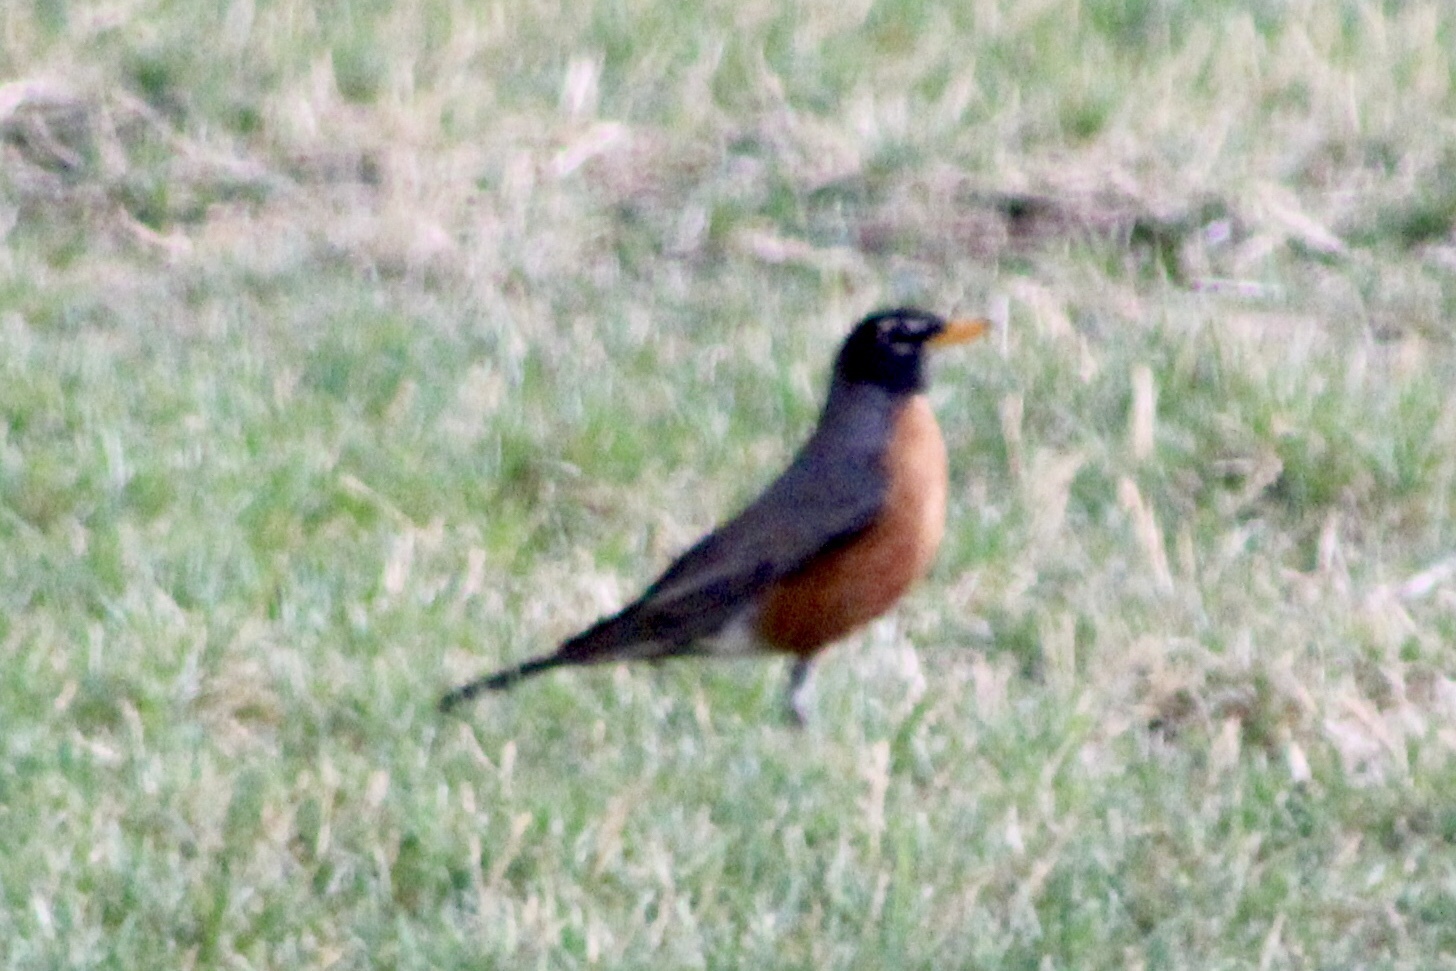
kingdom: Animalia
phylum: Chordata
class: Aves
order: Passeriformes
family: Turdidae
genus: Turdus
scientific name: Turdus migratorius
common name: American robin
